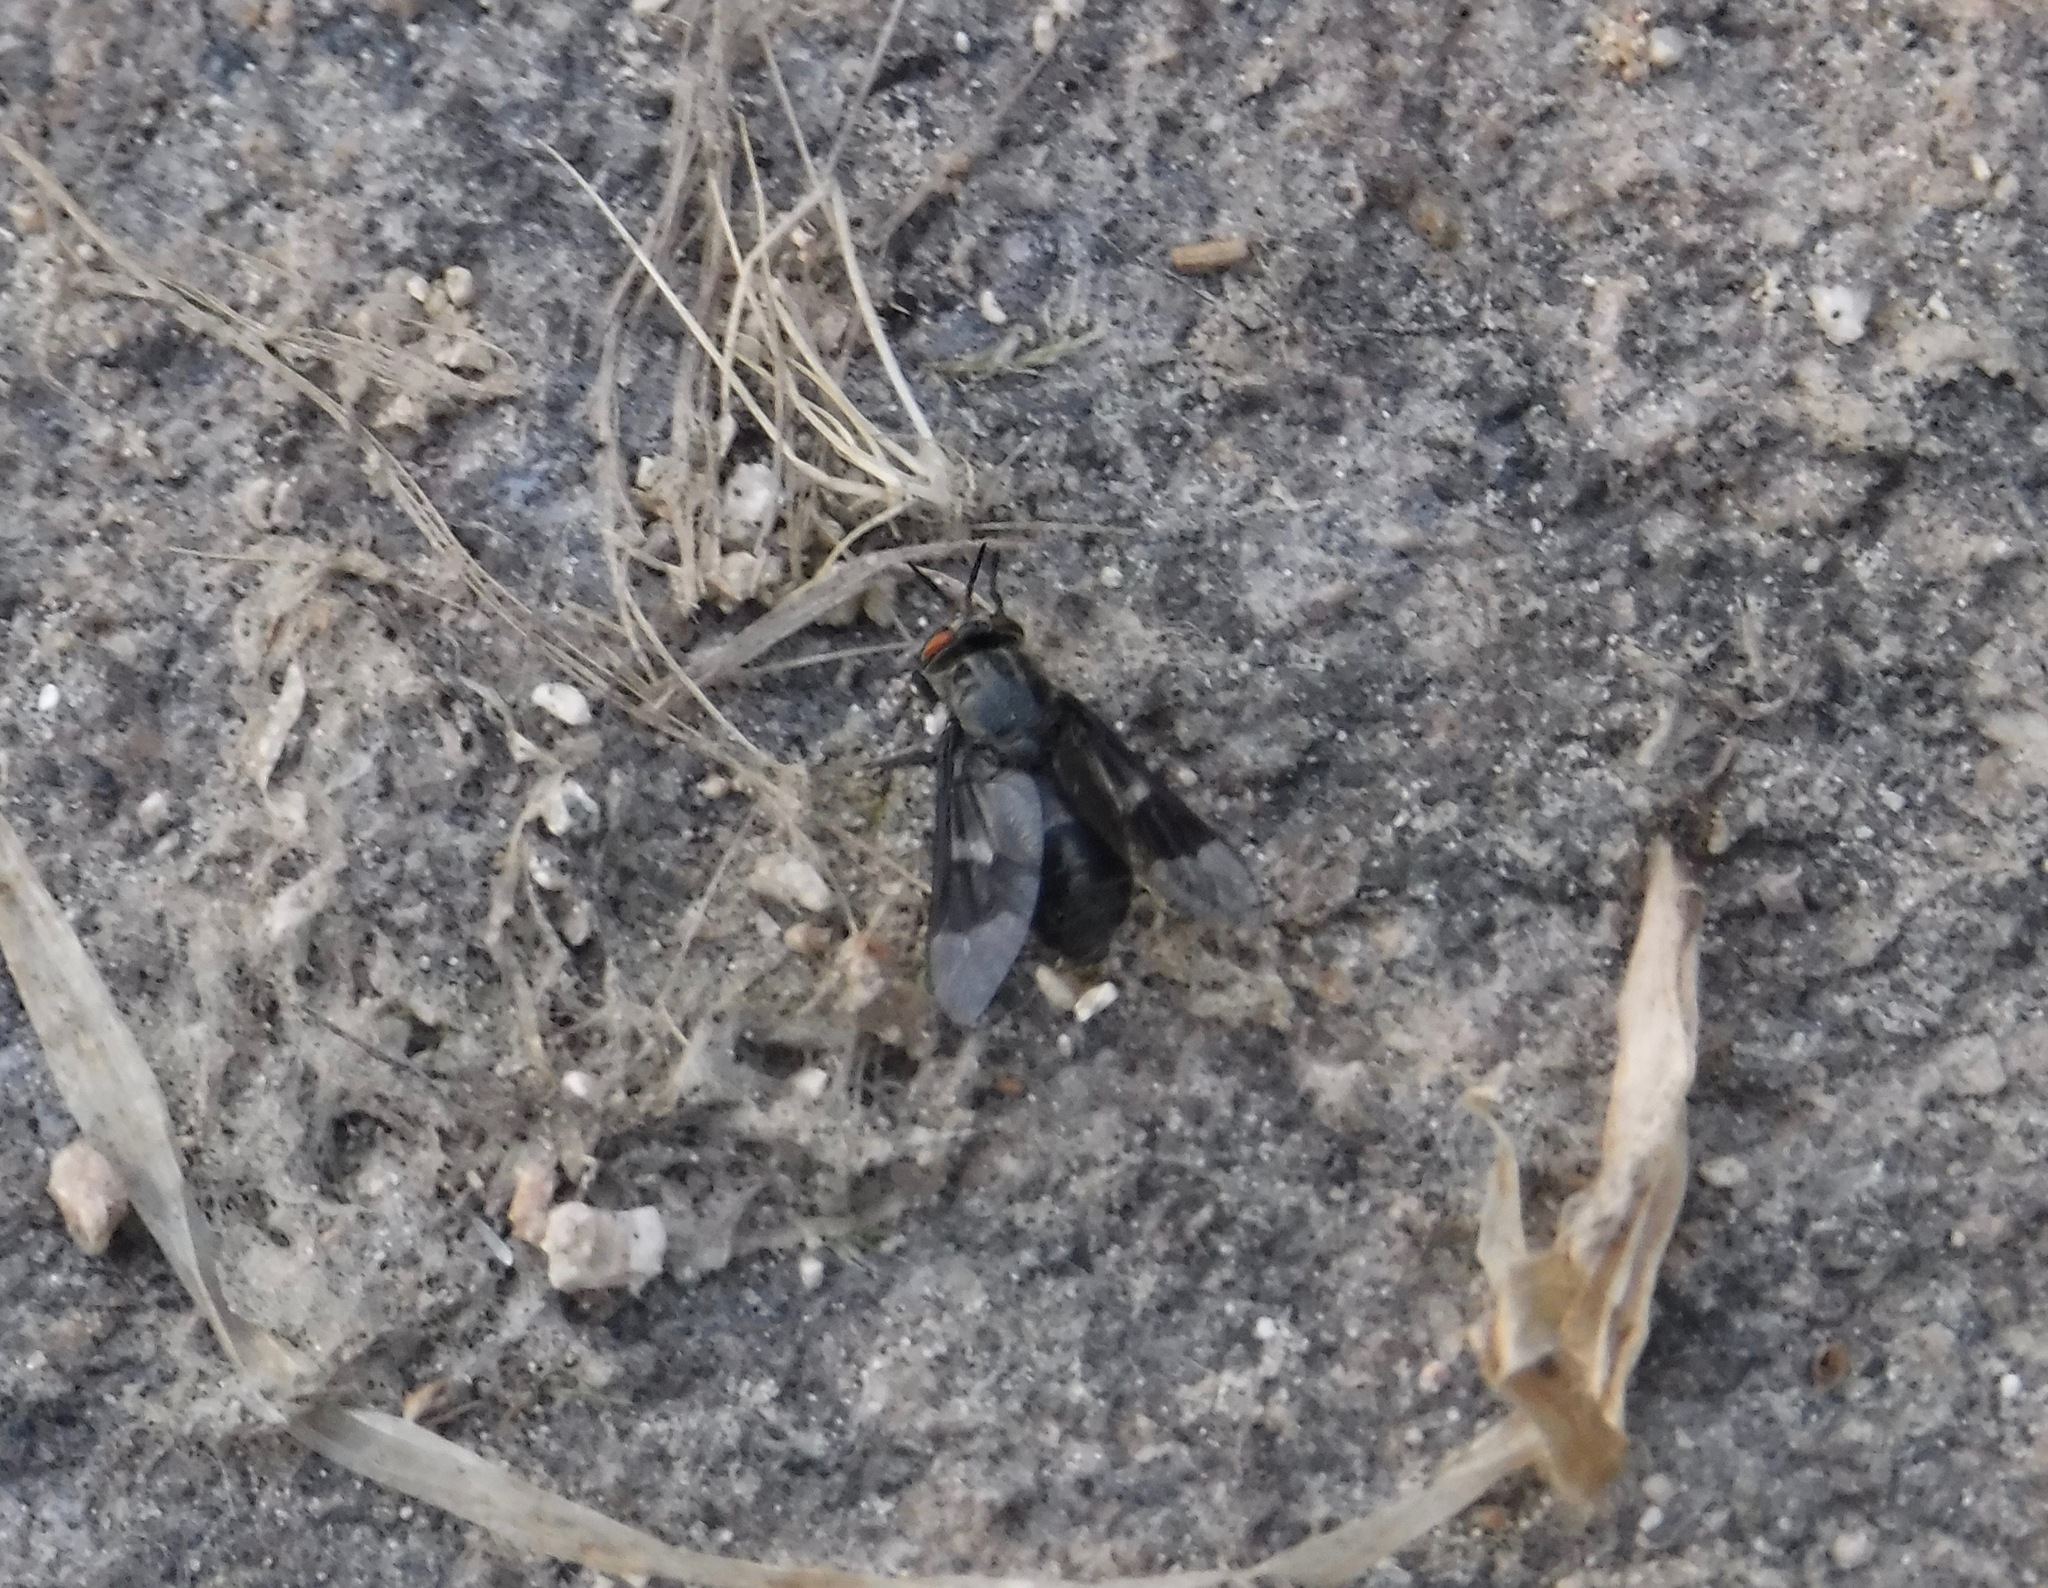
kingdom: Animalia
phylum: Arthropoda
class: Insecta
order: Diptera
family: Tabanidae
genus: Chrysops
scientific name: Chrysops mitis
